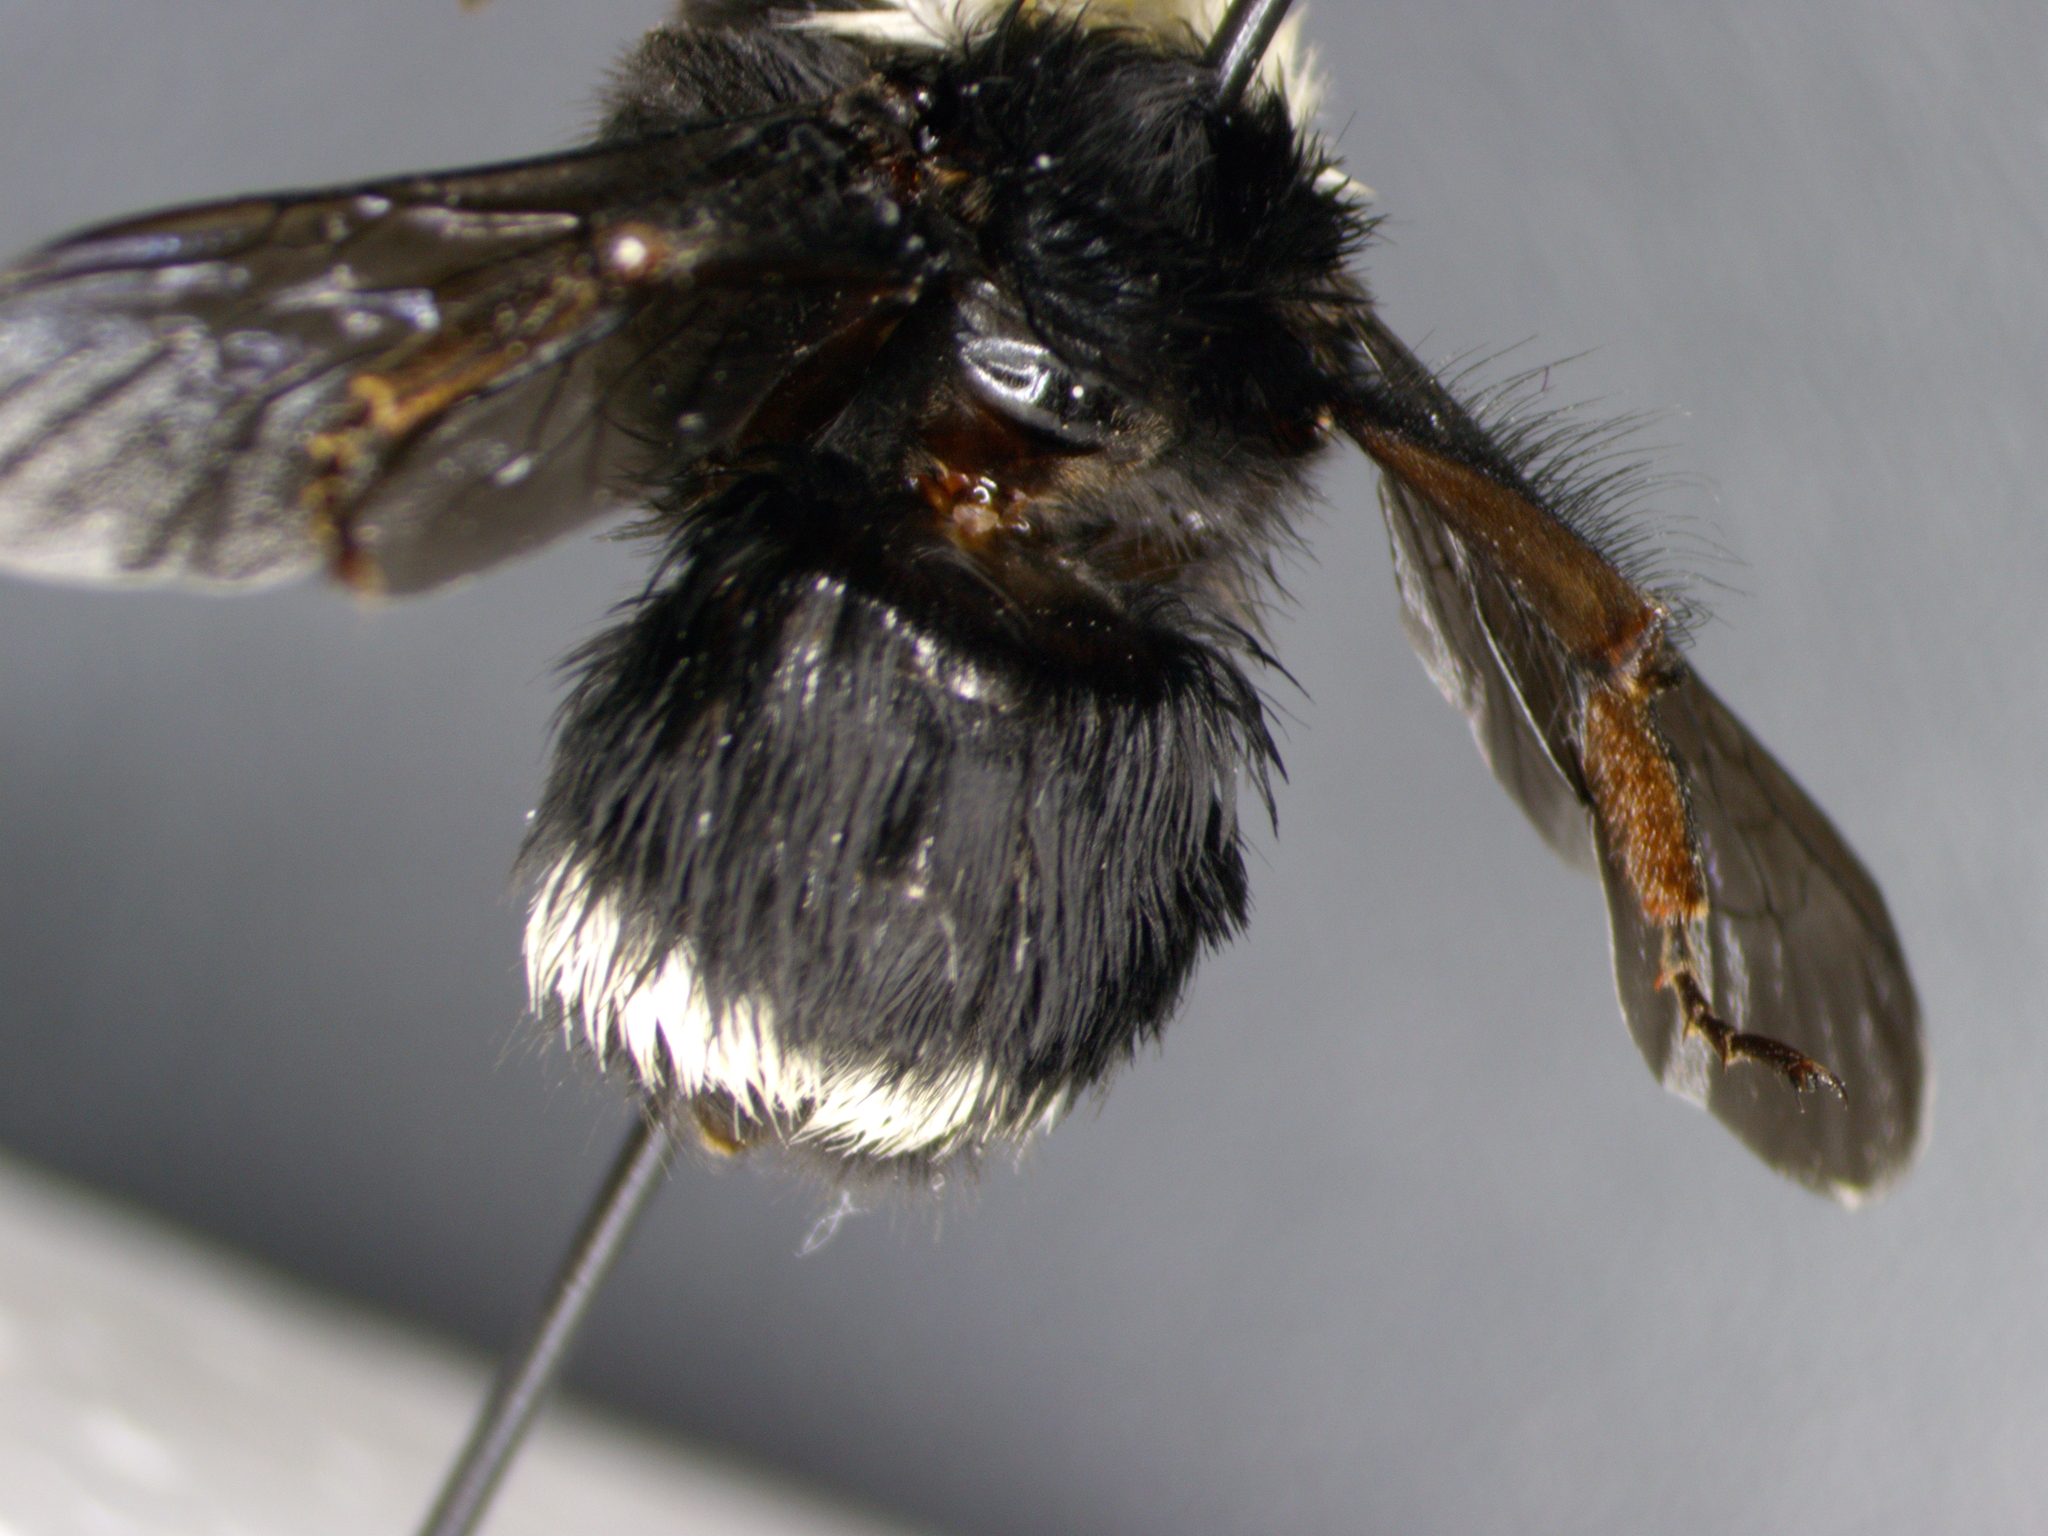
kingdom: Animalia
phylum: Arthropoda
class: Insecta
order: Hymenoptera
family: Apidae
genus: Bombus
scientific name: Bombus vosnesenskii
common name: Vosnesensky bumble bee
